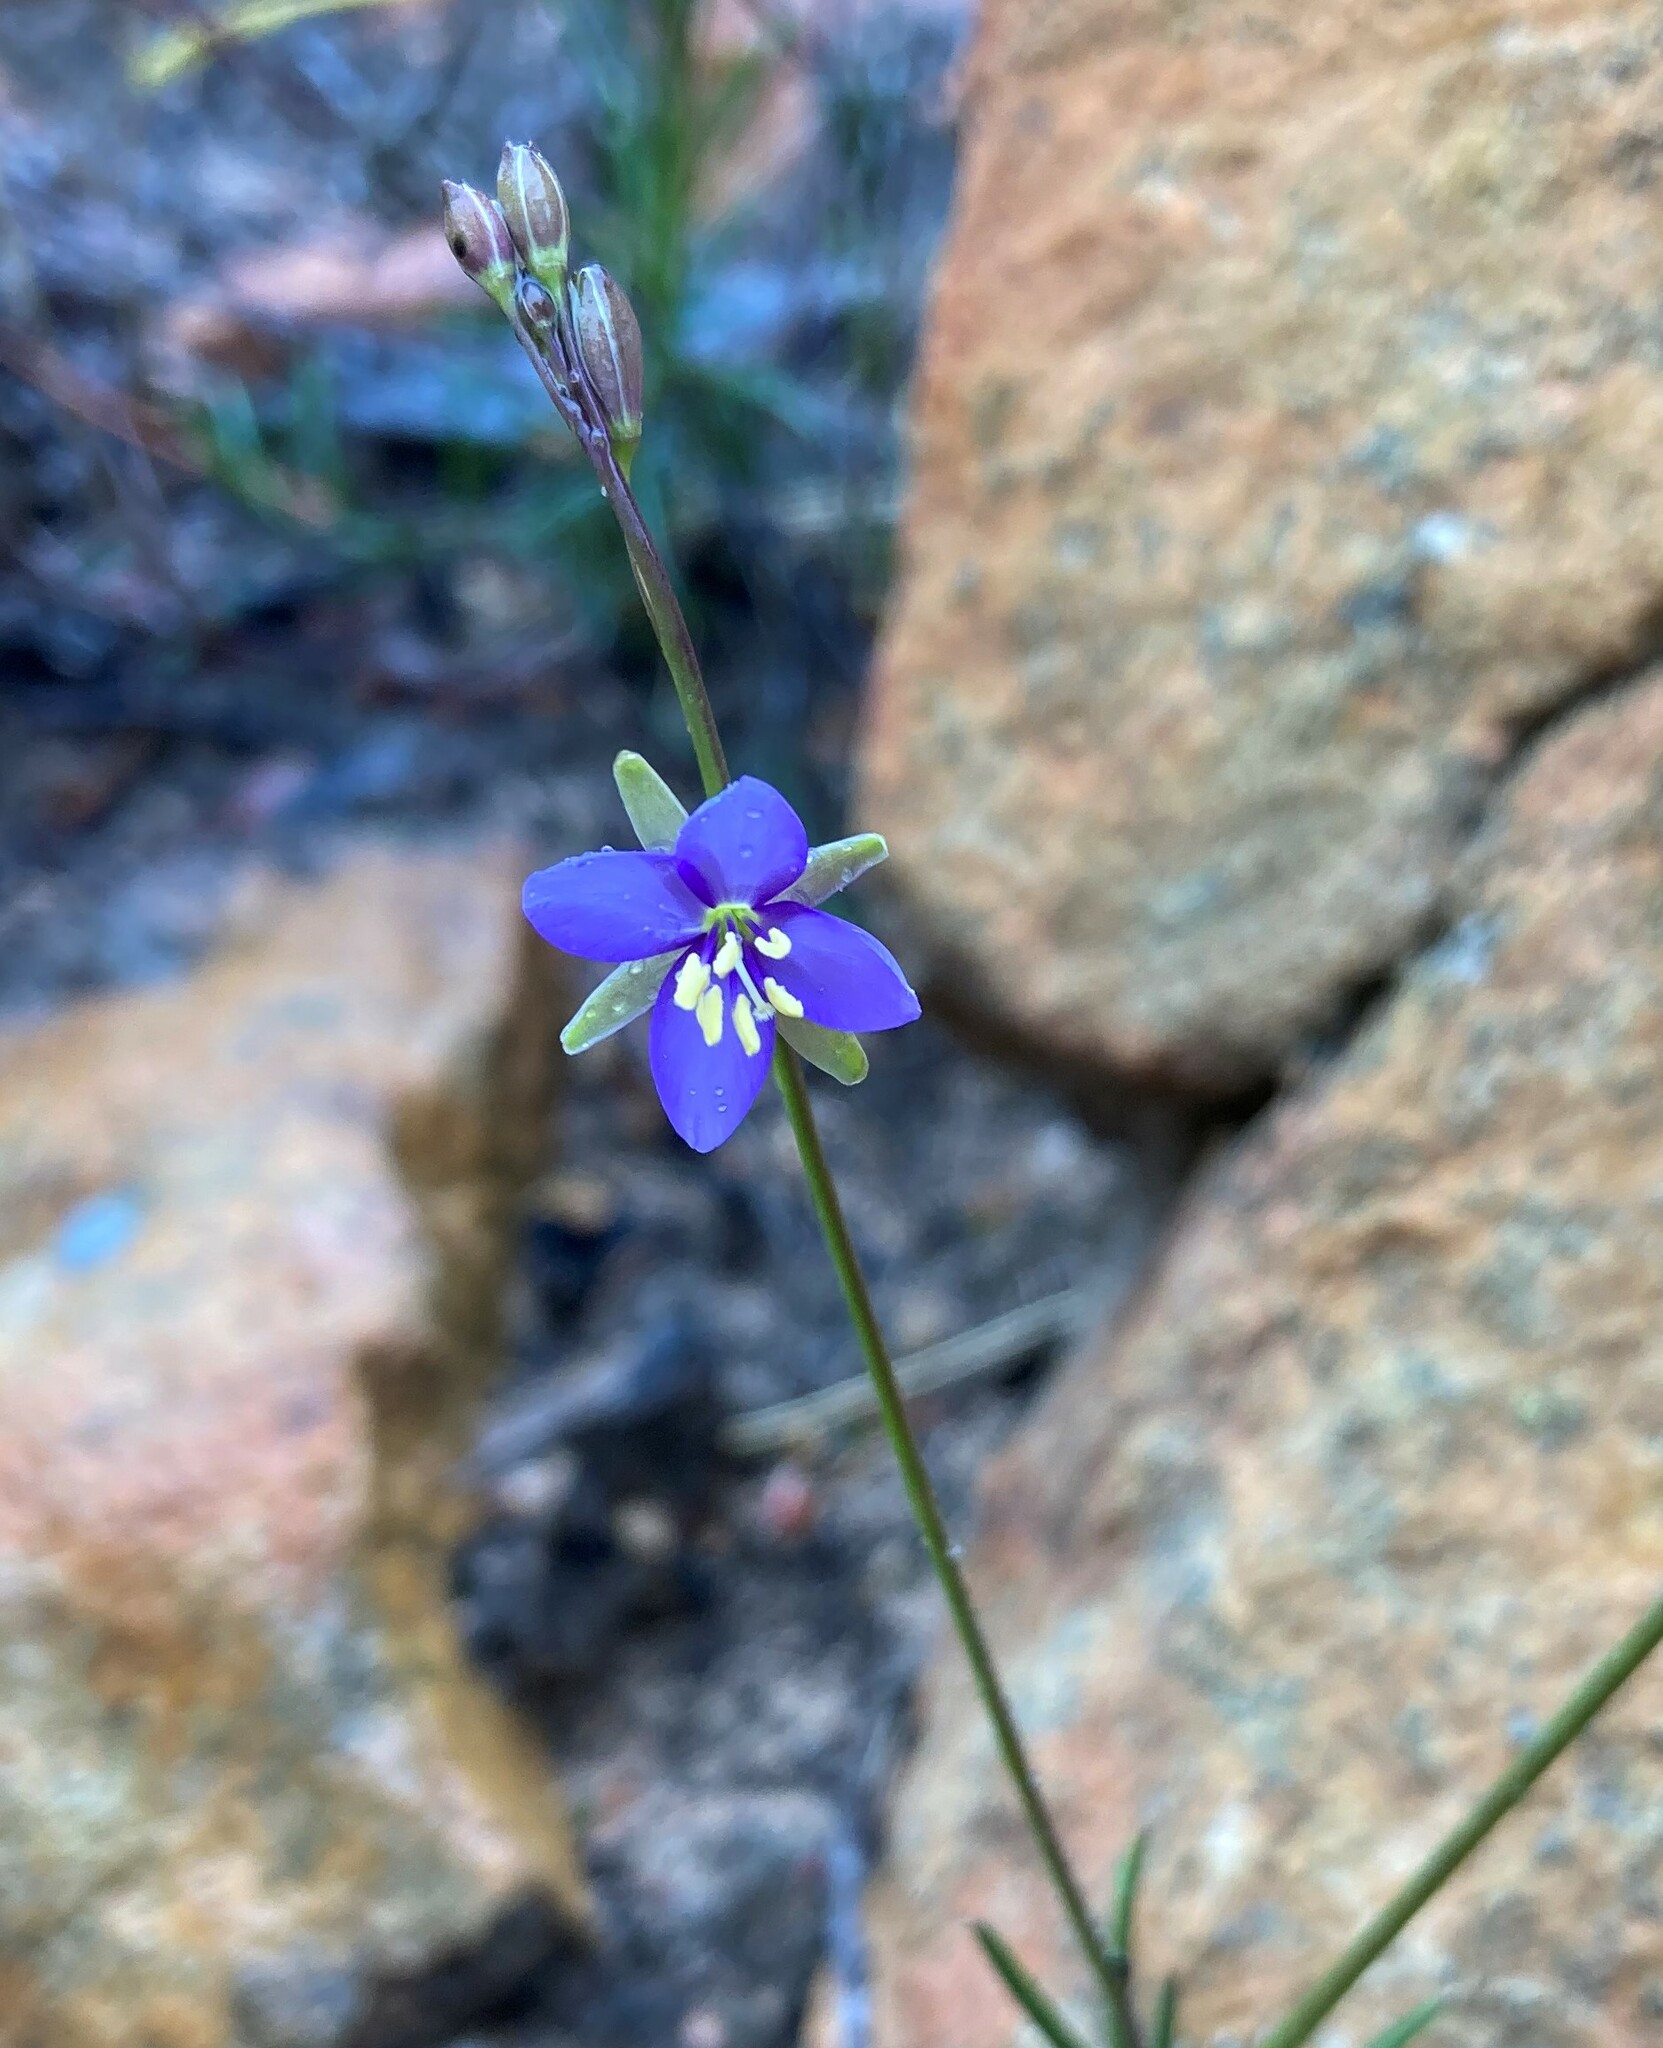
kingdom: Plantae
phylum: Tracheophyta
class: Magnoliopsida
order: Brassicales
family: Brassicaceae
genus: Heliophila
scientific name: Heliophila subulata
